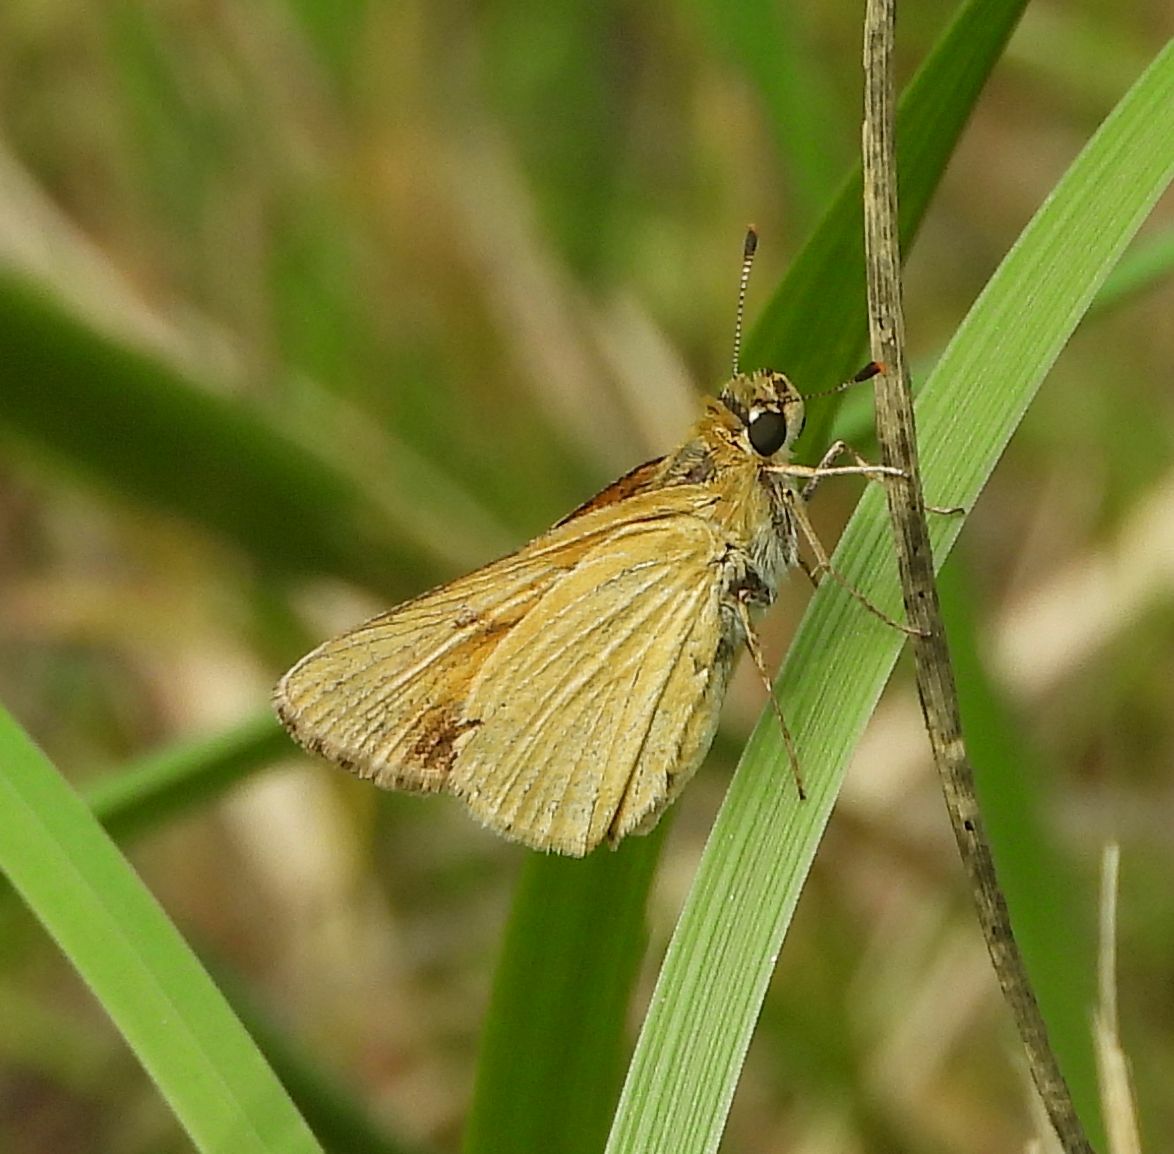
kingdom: Animalia
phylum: Arthropoda
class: Insecta
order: Lepidoptera
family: Hesperiidae
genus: Atrytone
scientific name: Atrytone delaware
